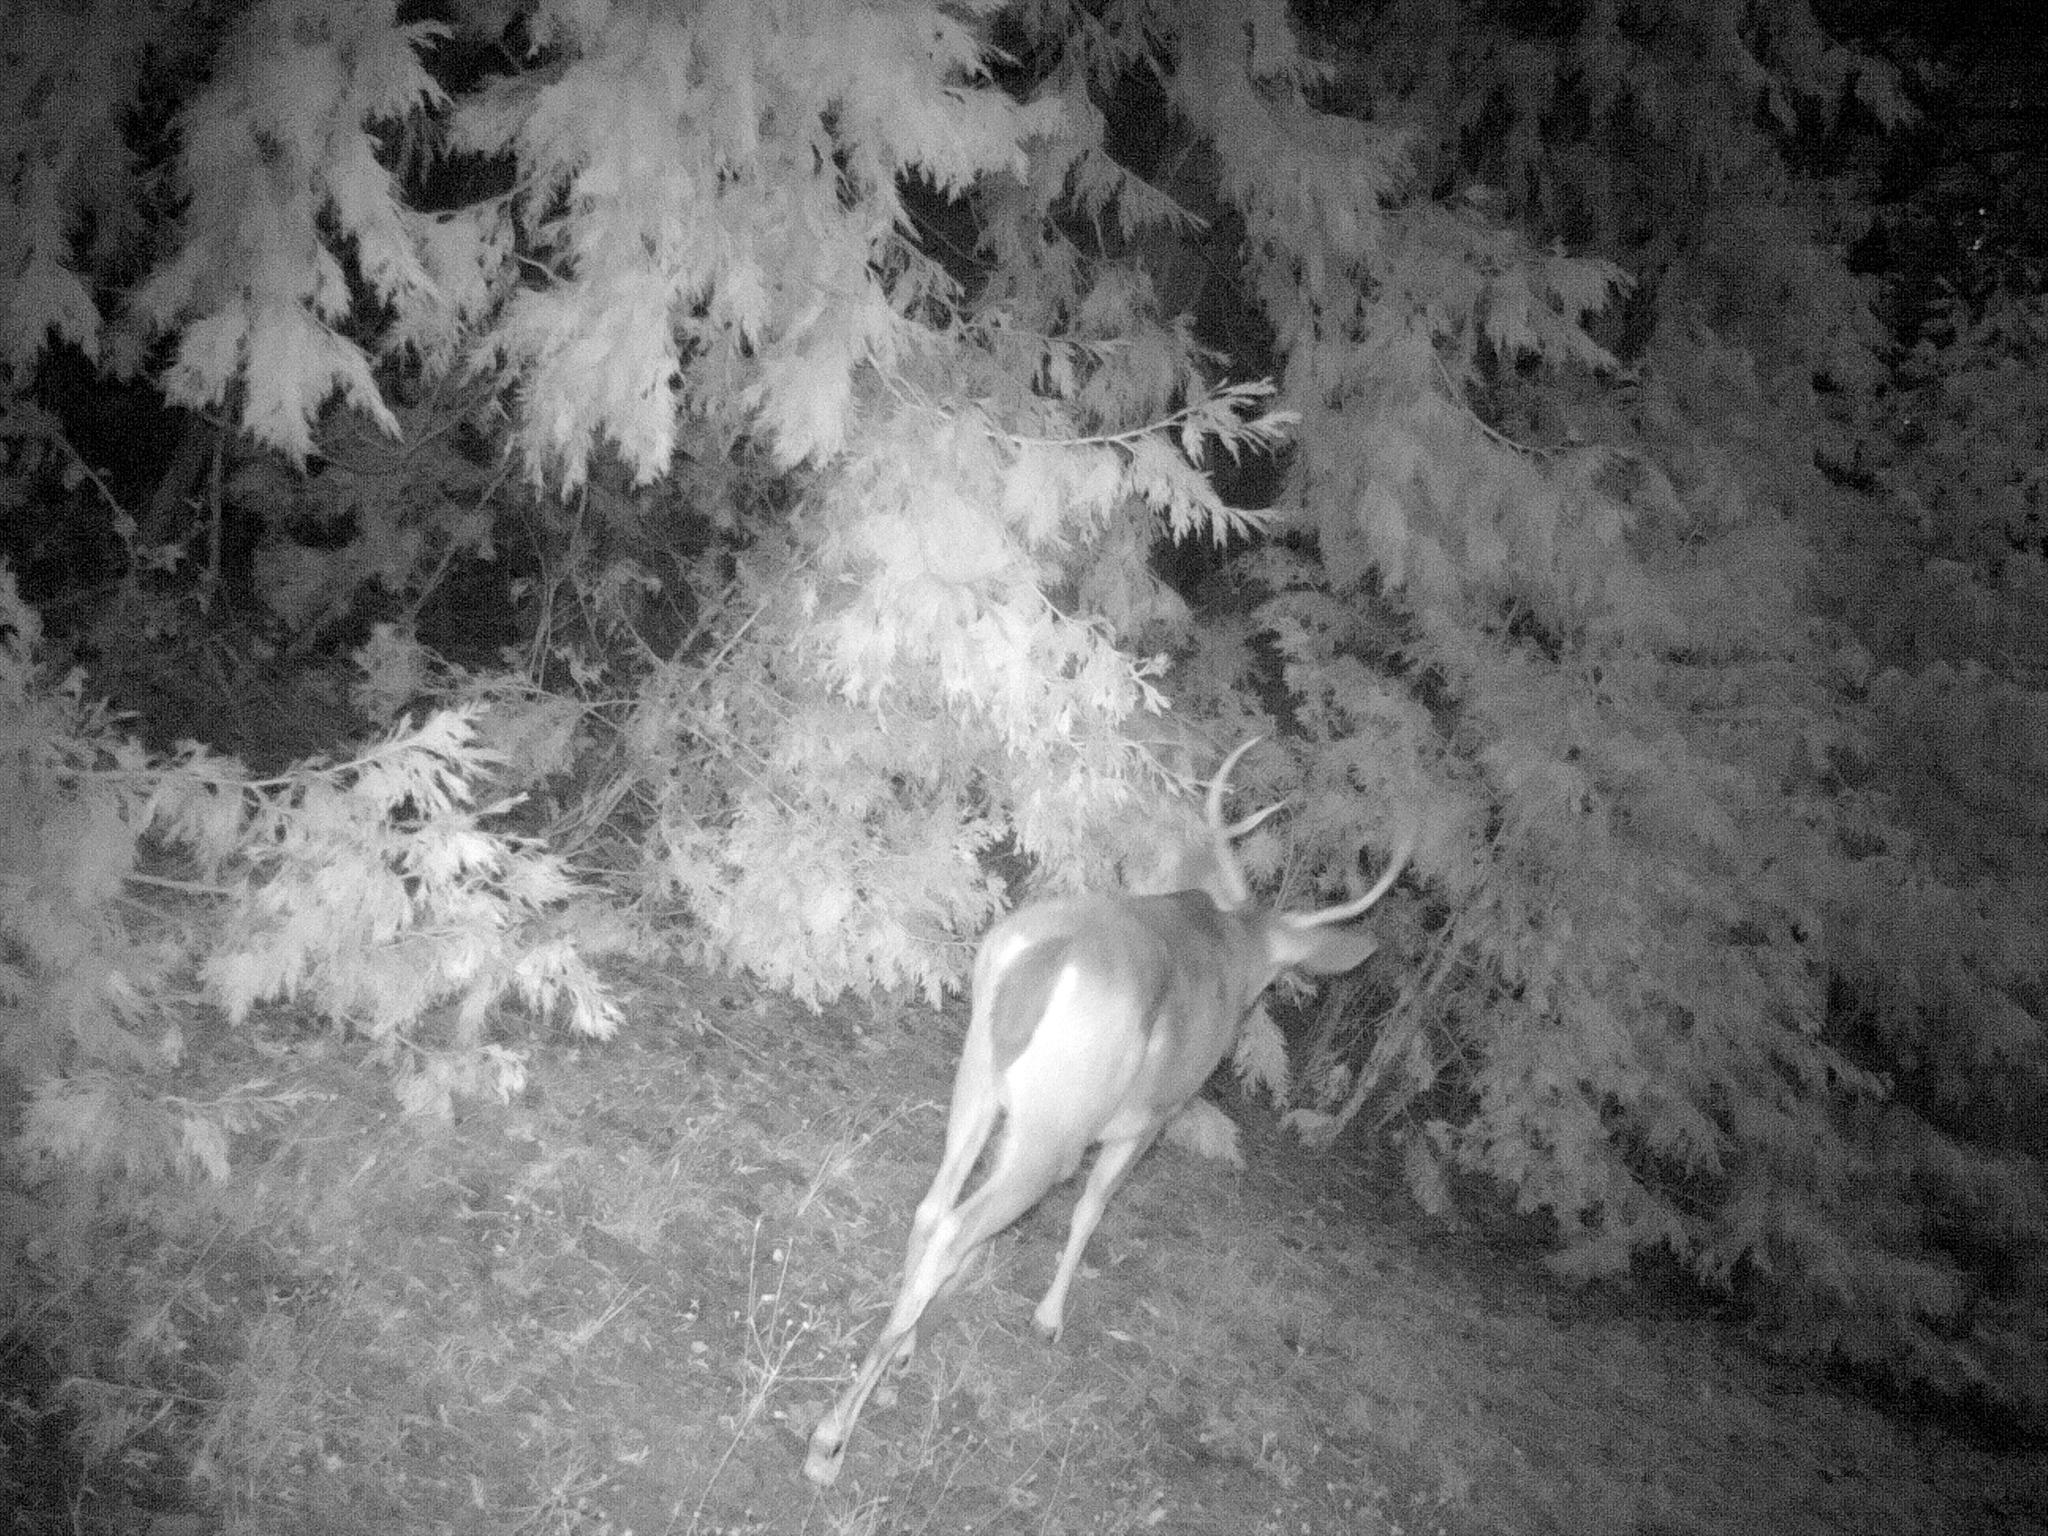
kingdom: Animalia
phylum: Chordata
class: Mammalia
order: Artiodactyla
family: Cervidae
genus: Odocoileus
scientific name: Odocoileus hemionus
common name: Mule deer
